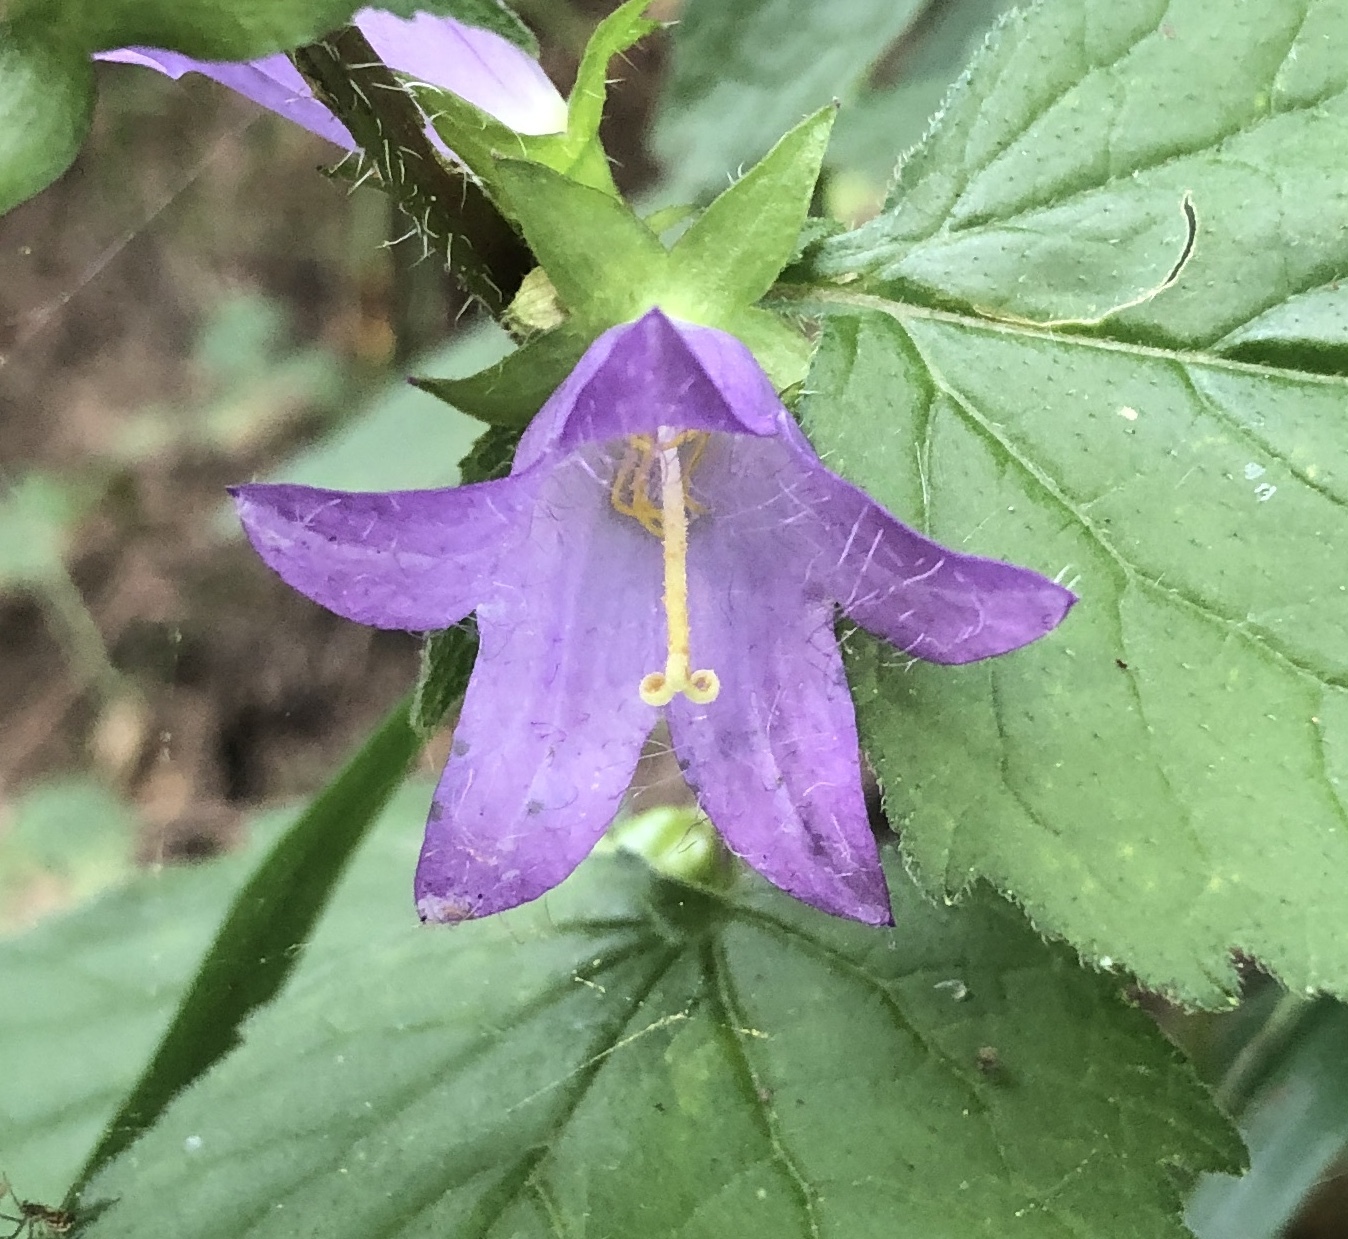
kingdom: Plantae
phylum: Tracheophyta
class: Magnoliopsida
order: Asterales
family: Campanulaceae
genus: Campanula
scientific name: Campanula trachelium
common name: Nettle-leaved bellflower
